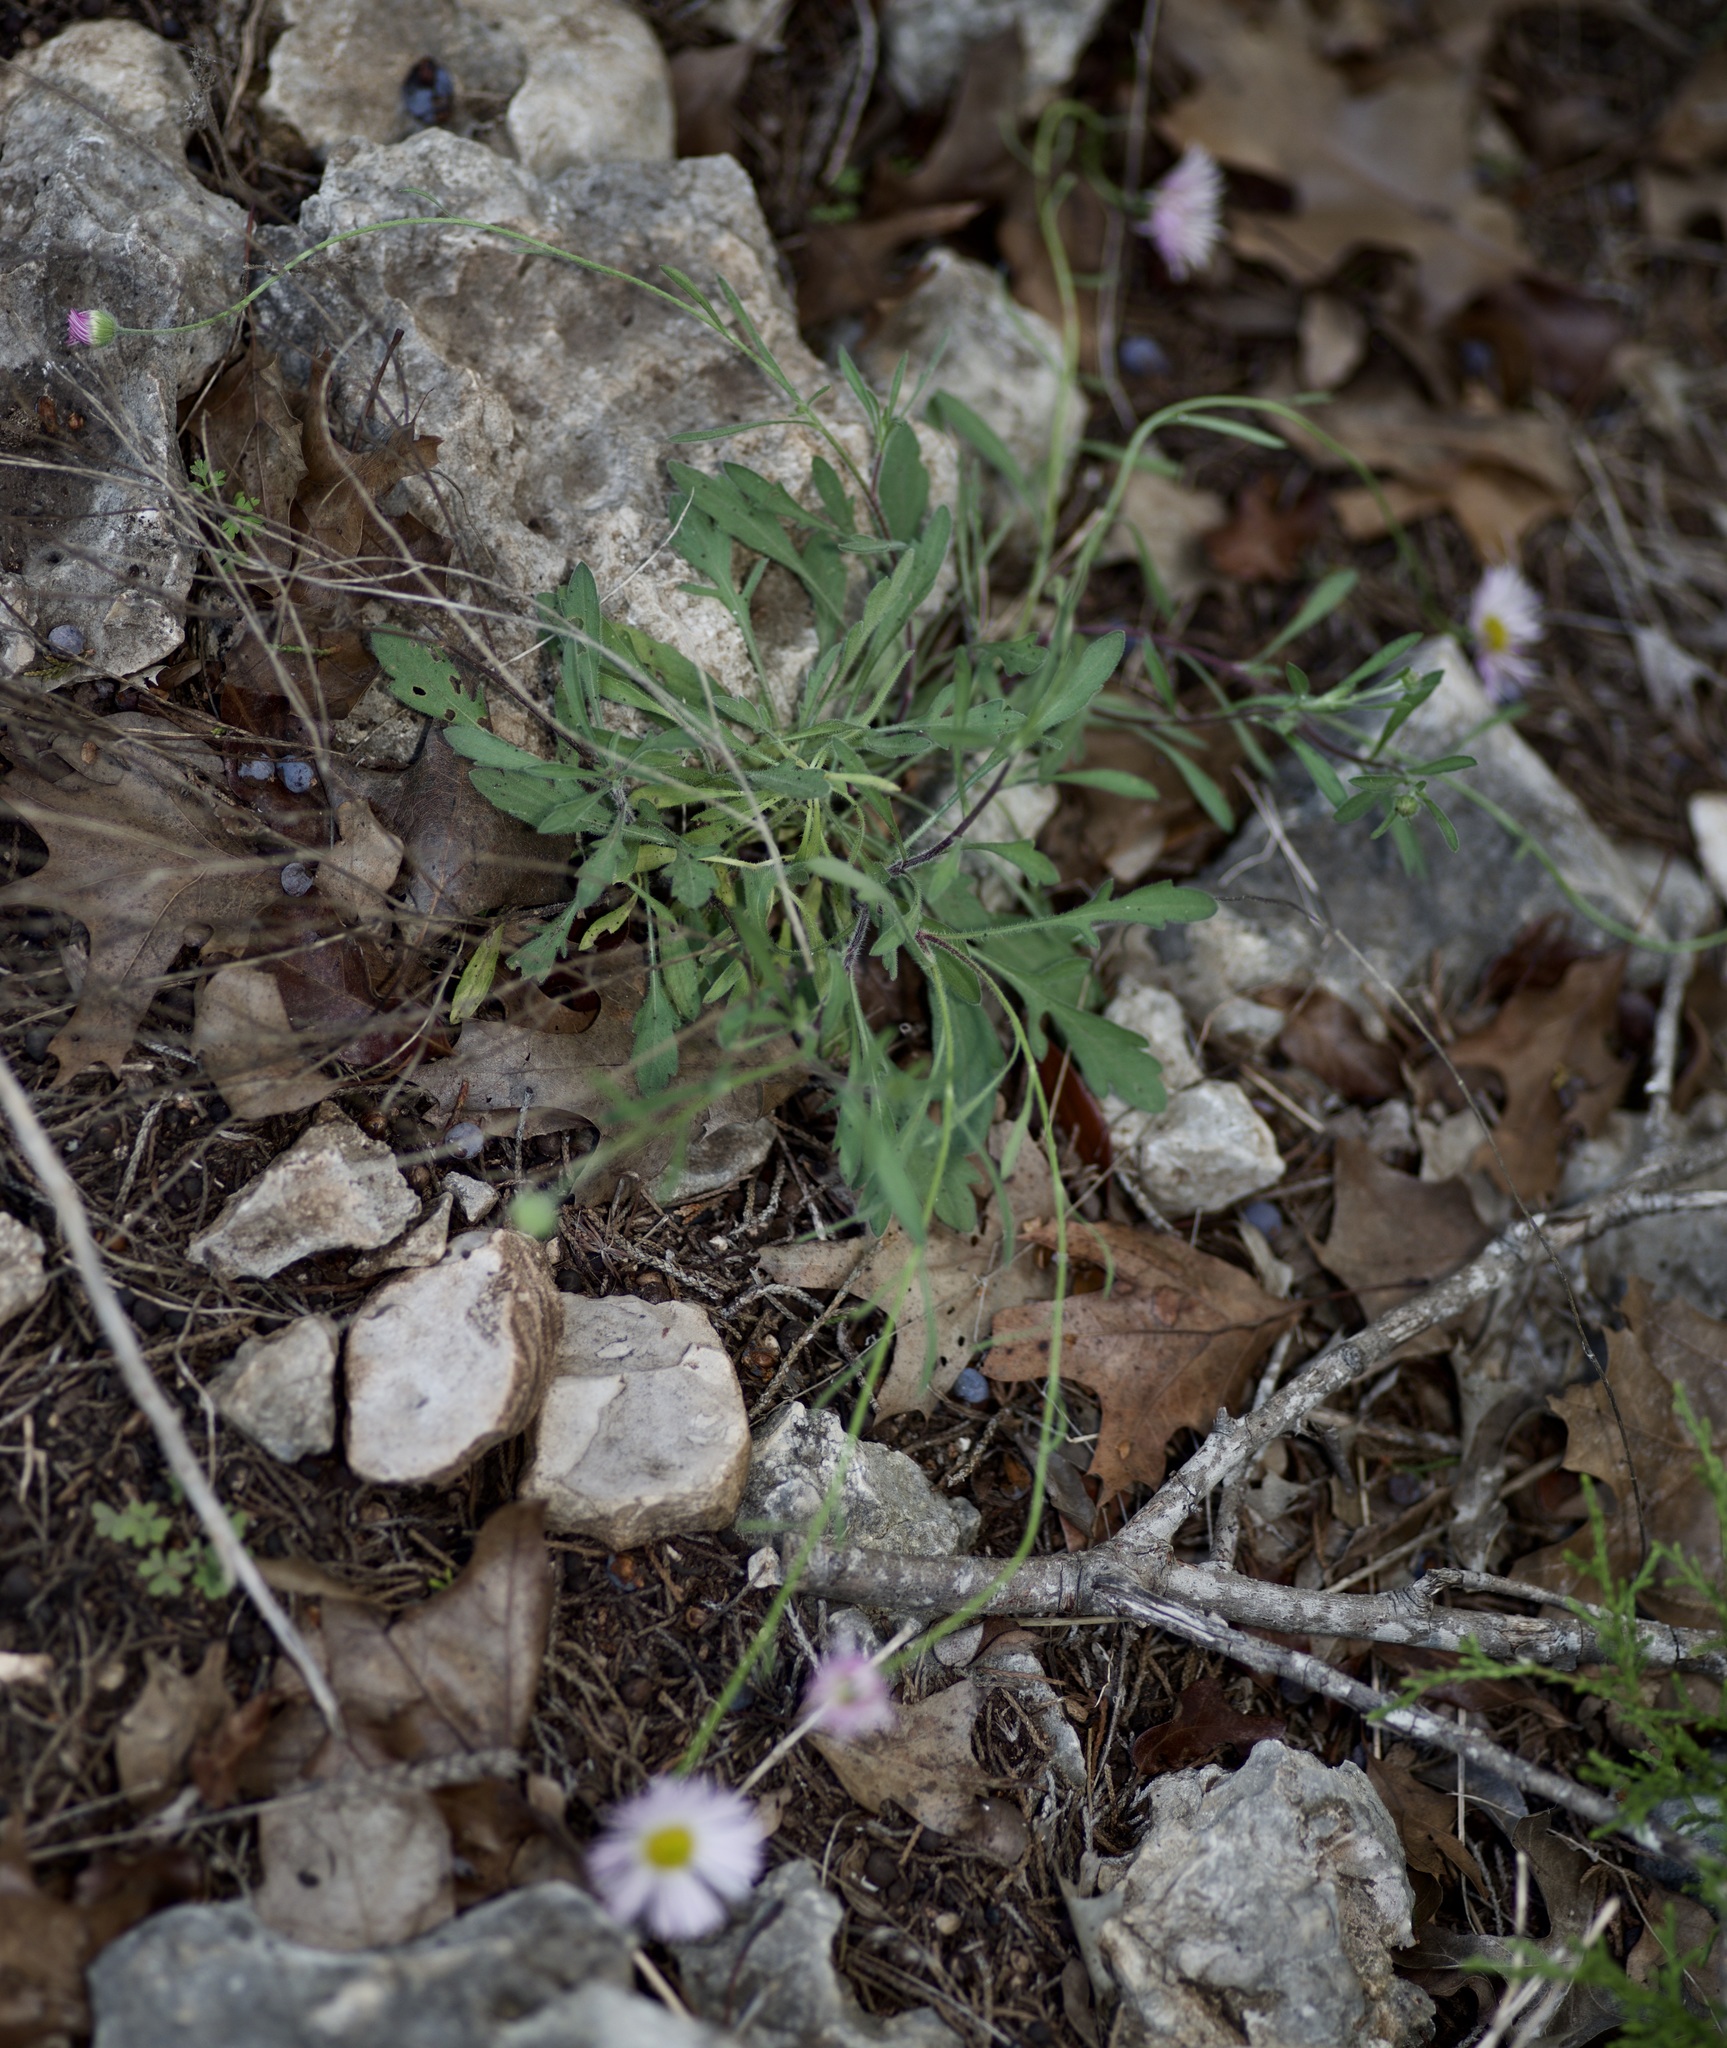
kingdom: Plantae
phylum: Tracheophyta
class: Magnoliopsida
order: Asterales
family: Asteraceae
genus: Erigeron
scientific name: Erigeron strigosus
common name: Common eastern fleabane
